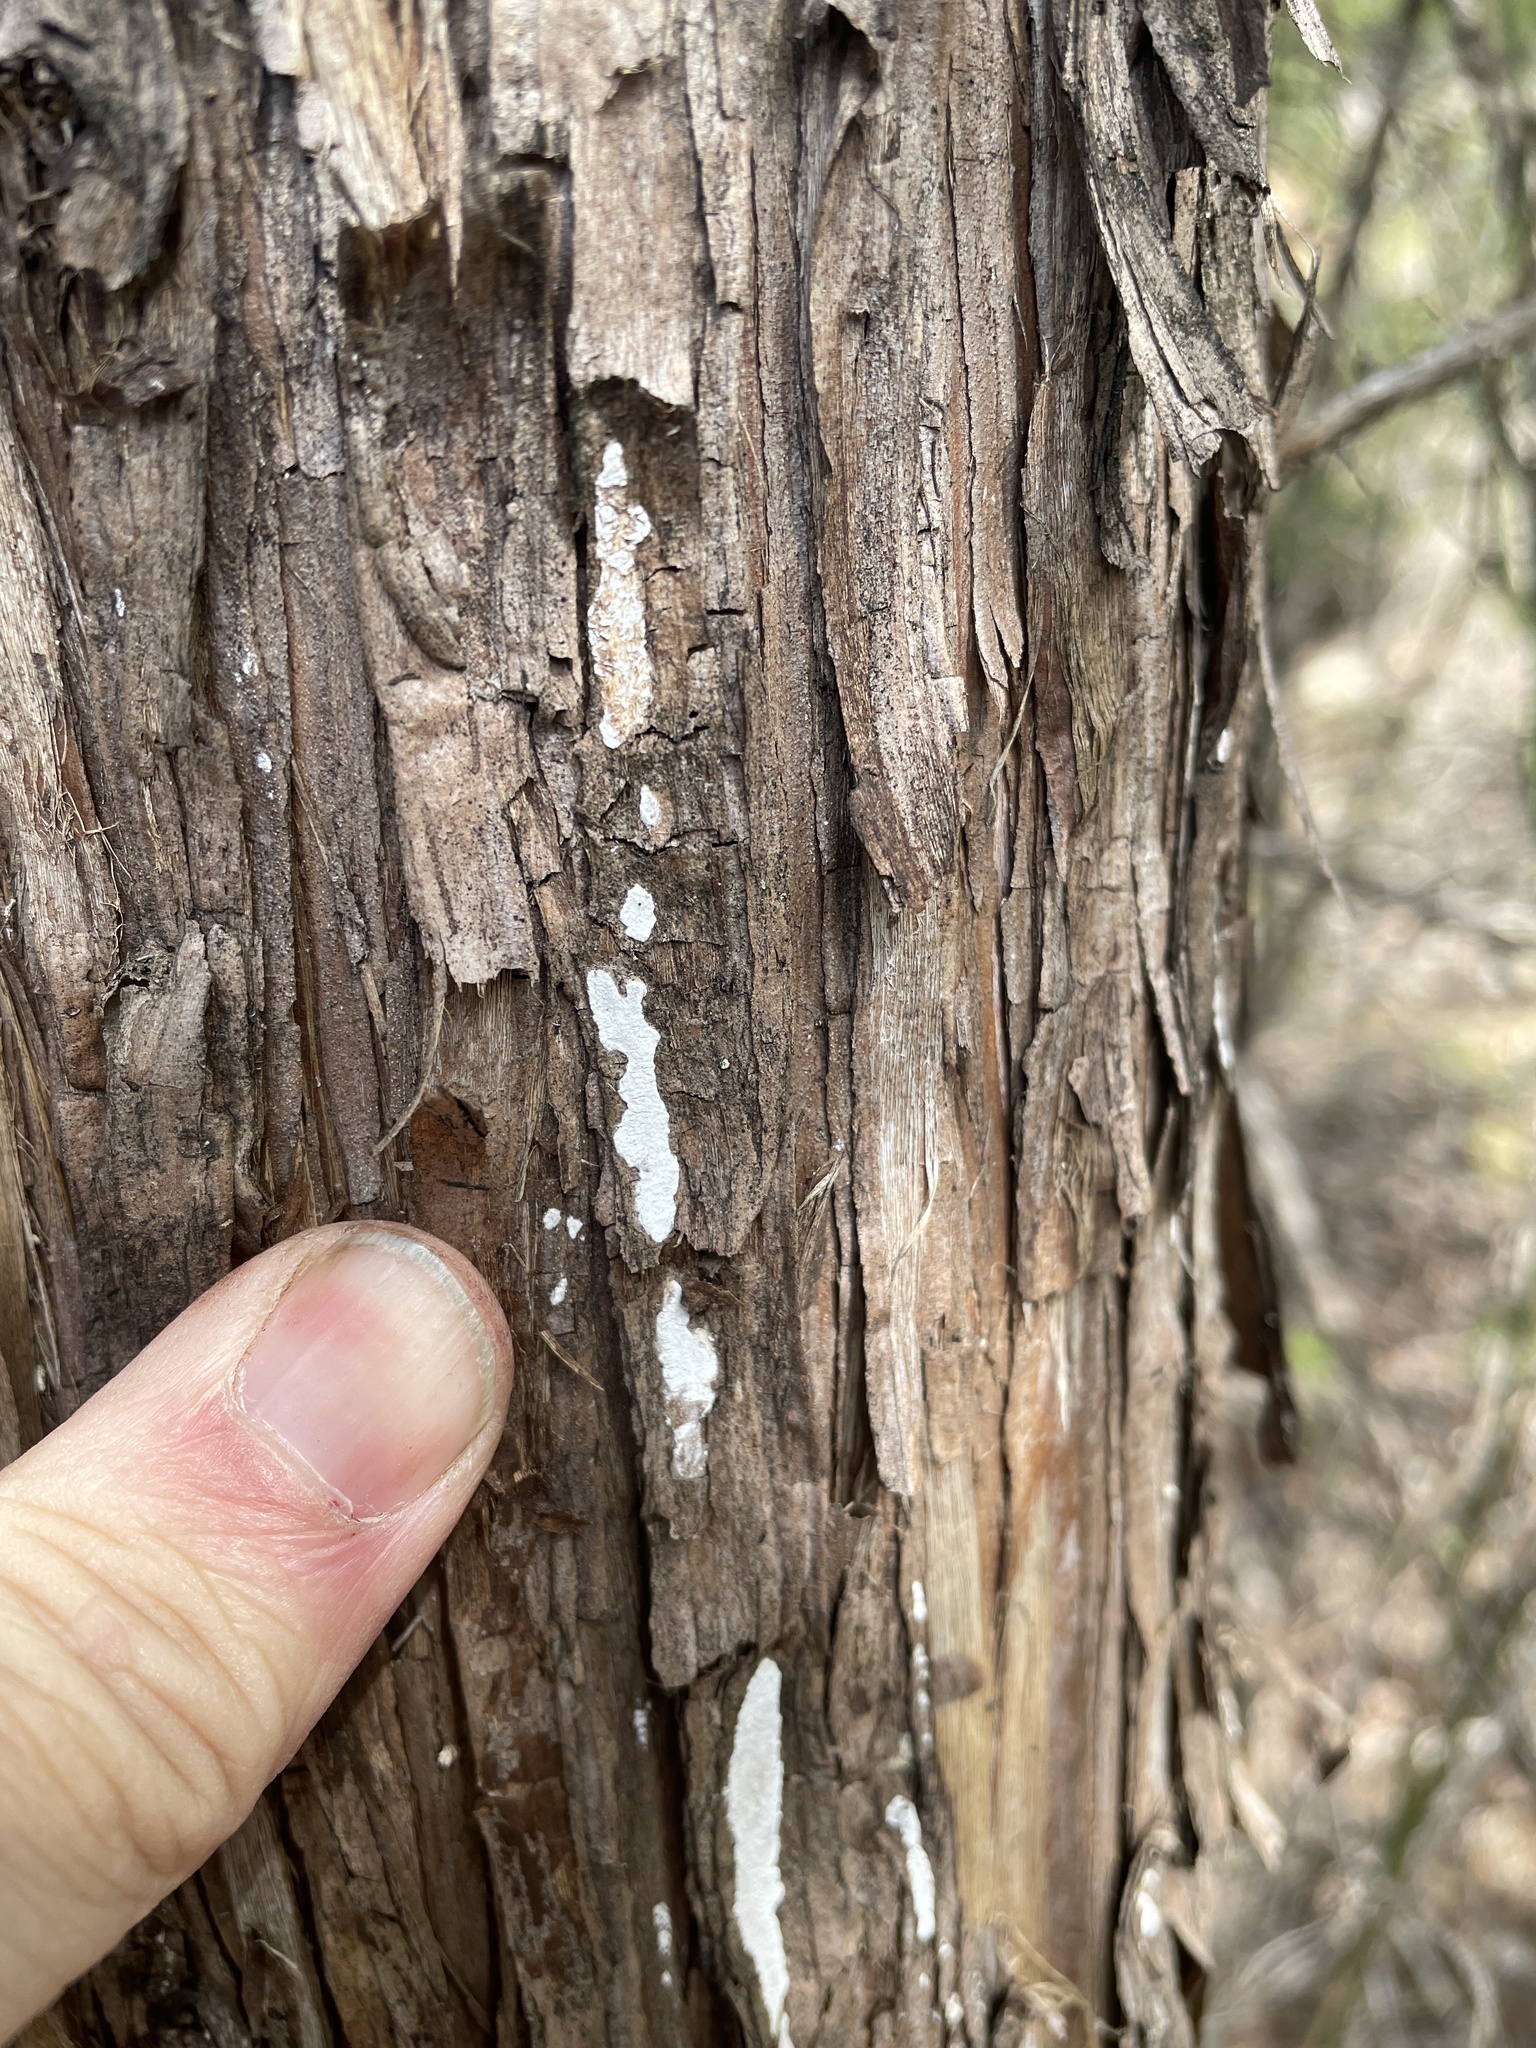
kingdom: Fungi
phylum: Basidiomycota
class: Agaricomycetes
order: Agaricales
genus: Dendrothele
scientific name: Dendrothele nivosa
